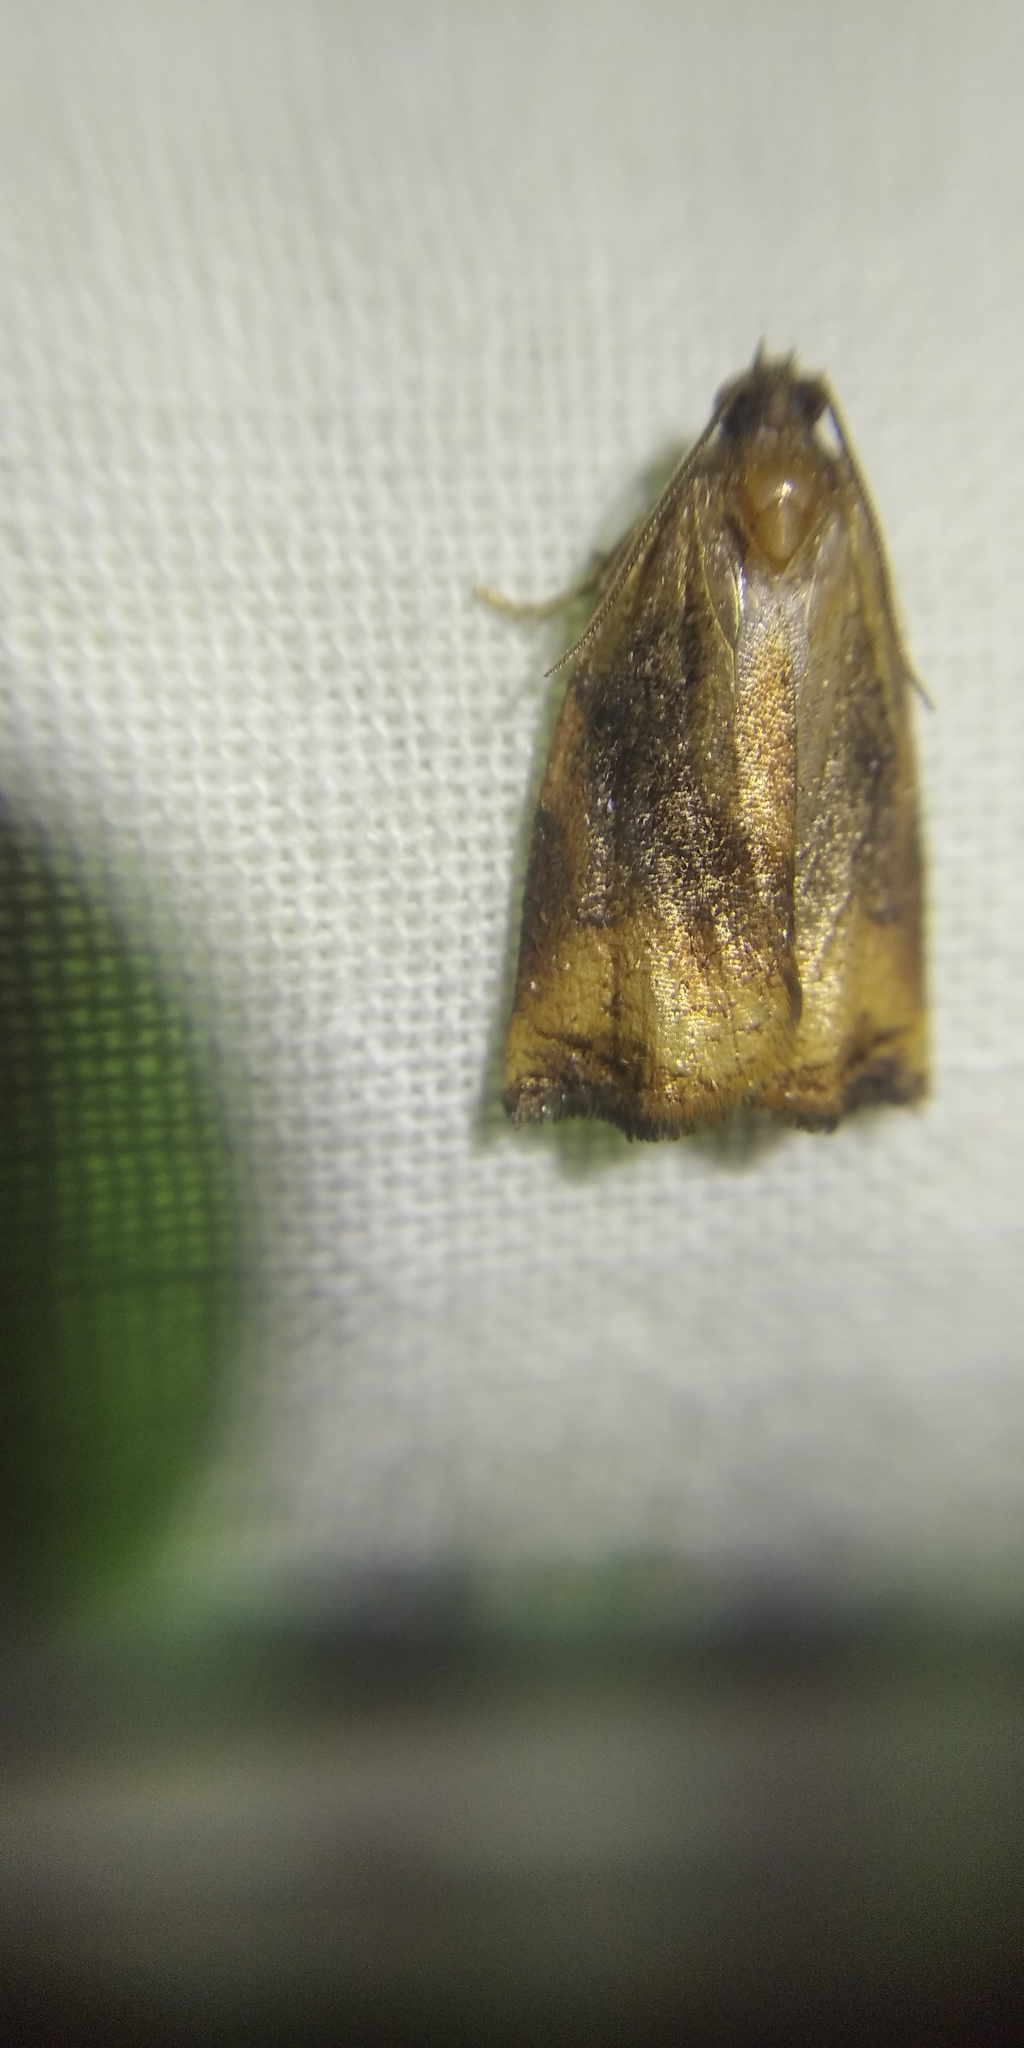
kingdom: Animalia
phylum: Arthropoda
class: Insecta
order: Lepidoptera
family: Tortricidae
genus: Archips
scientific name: Archips podana
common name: Large fruit-tree tortrix
